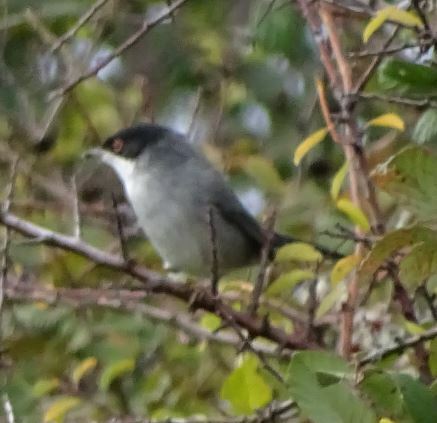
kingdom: Animalia
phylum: Chordata
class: Aves
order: Passeriformes
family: Sylviidae
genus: Curruca
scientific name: Curruca melanocephala
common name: Sardinian warbler
